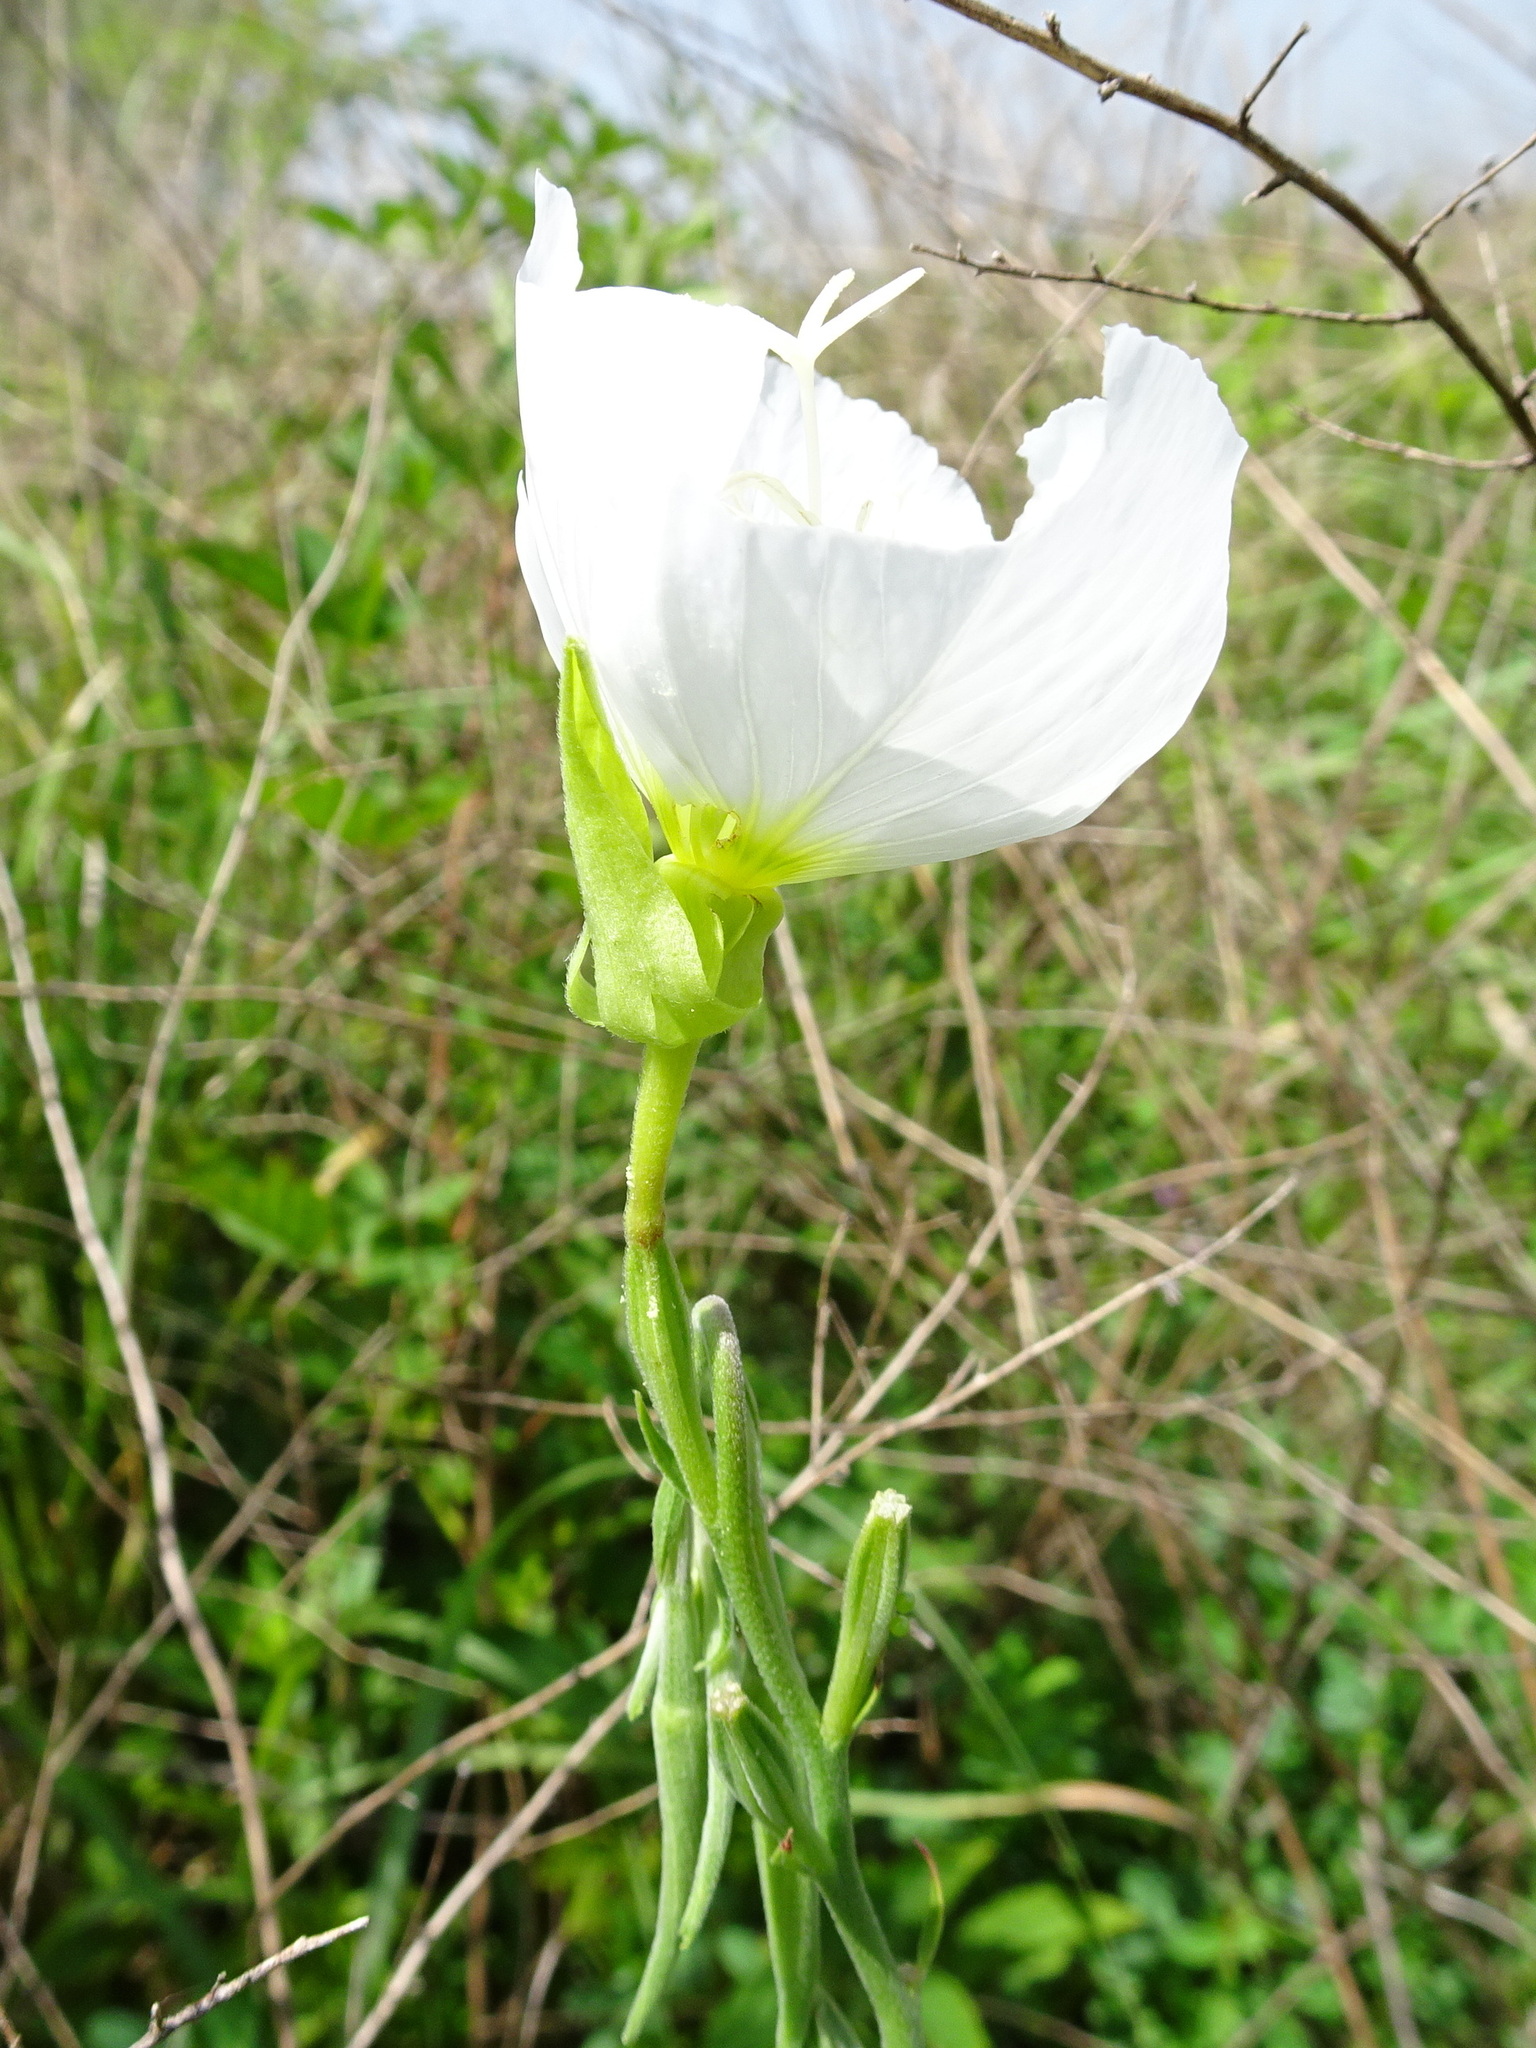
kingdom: Plantae
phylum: Tracheophyta
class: Magnoliopsida
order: Myrtales
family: Onagraceae
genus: Oenothera
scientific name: Oenothera speciosa
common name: White evening-primrose
